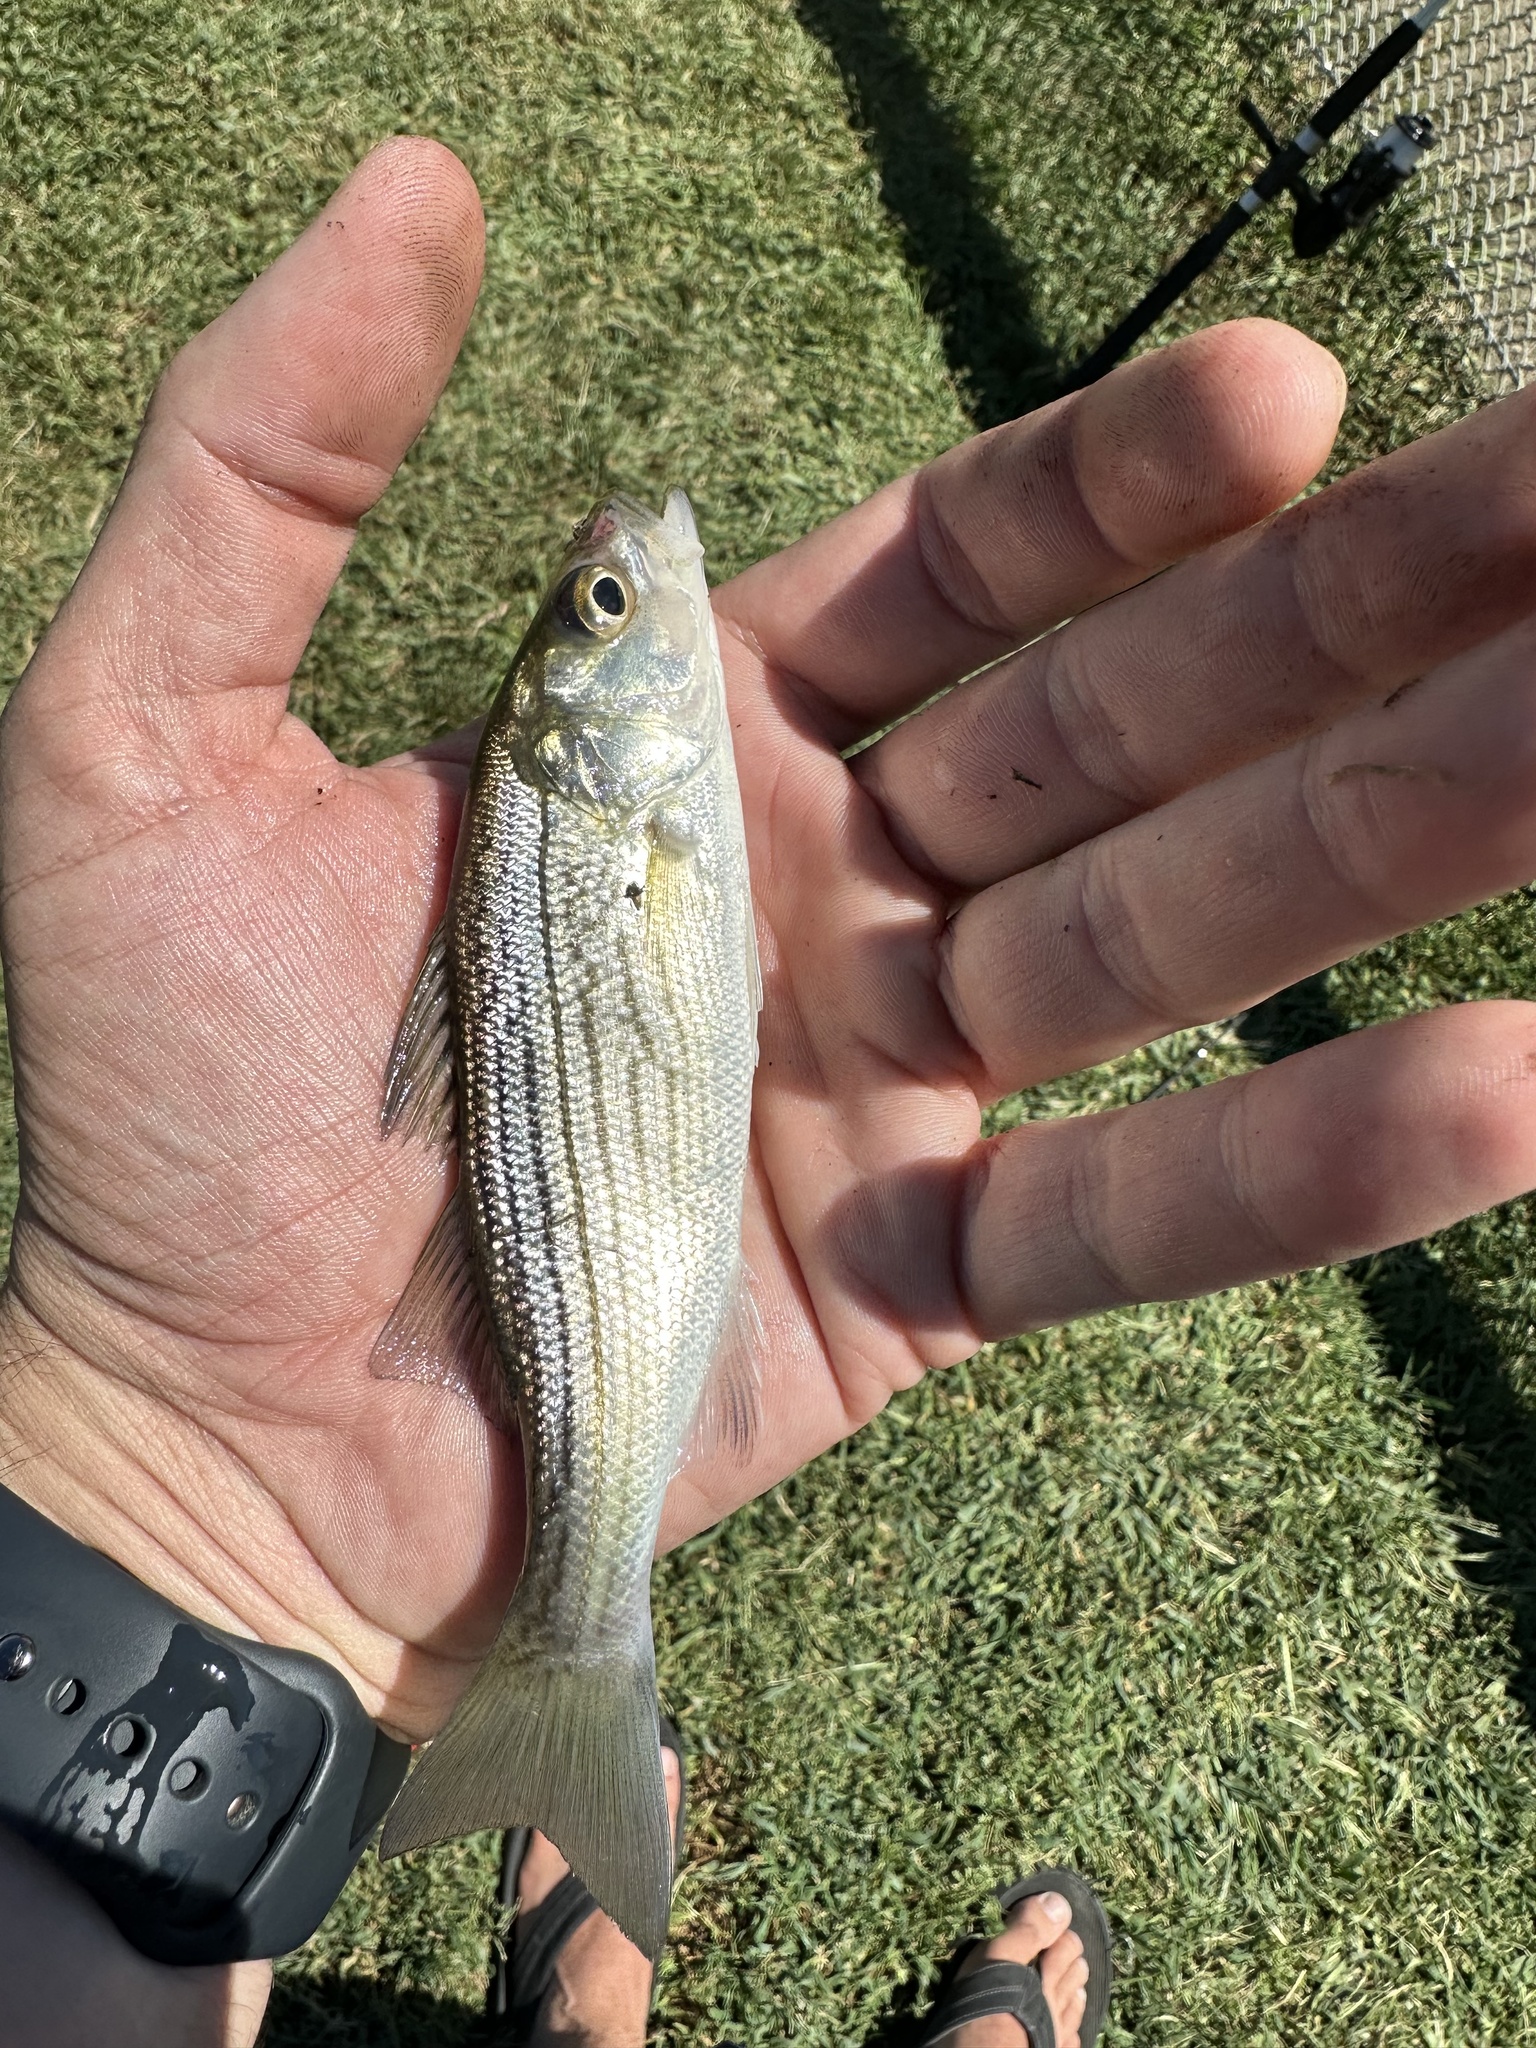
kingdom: Animalia
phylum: Chordata
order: Perciformes
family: Moronidae
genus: Morone
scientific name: Morone saxatilis
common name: Striped bass
